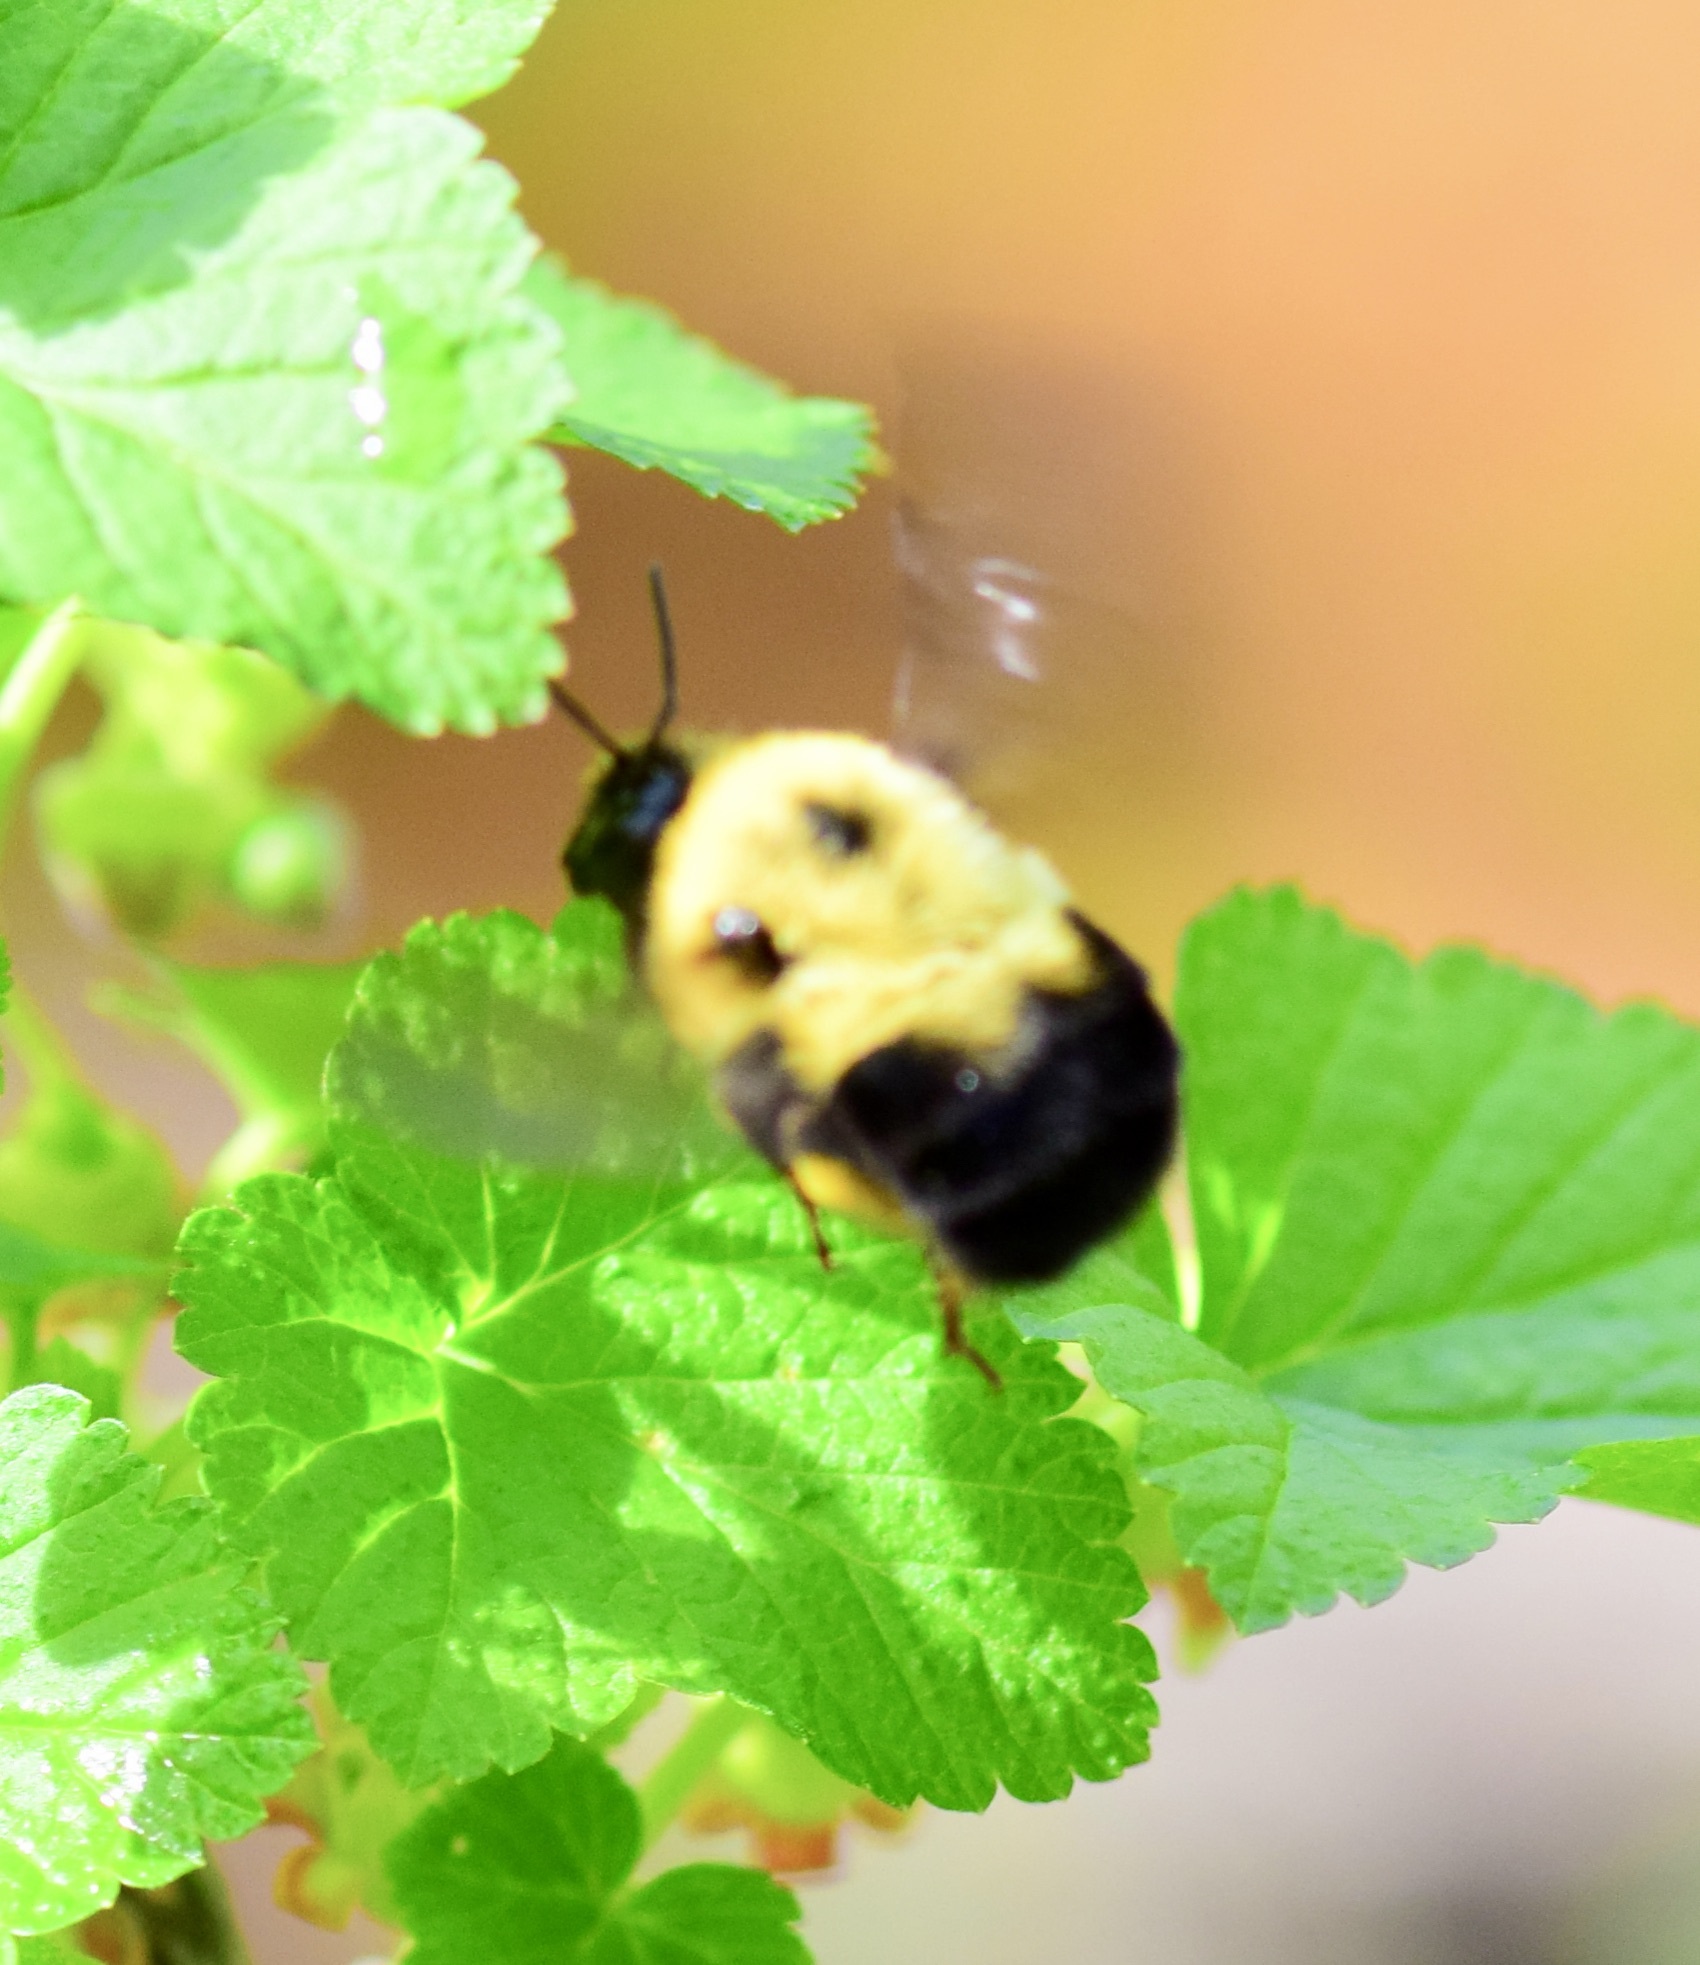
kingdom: Animalia
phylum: Arthropoda
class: Insecta
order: Hymenoptera
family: Apidae
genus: Bombus
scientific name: Bombus bimaculatus
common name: Two-spotted bumble bee
